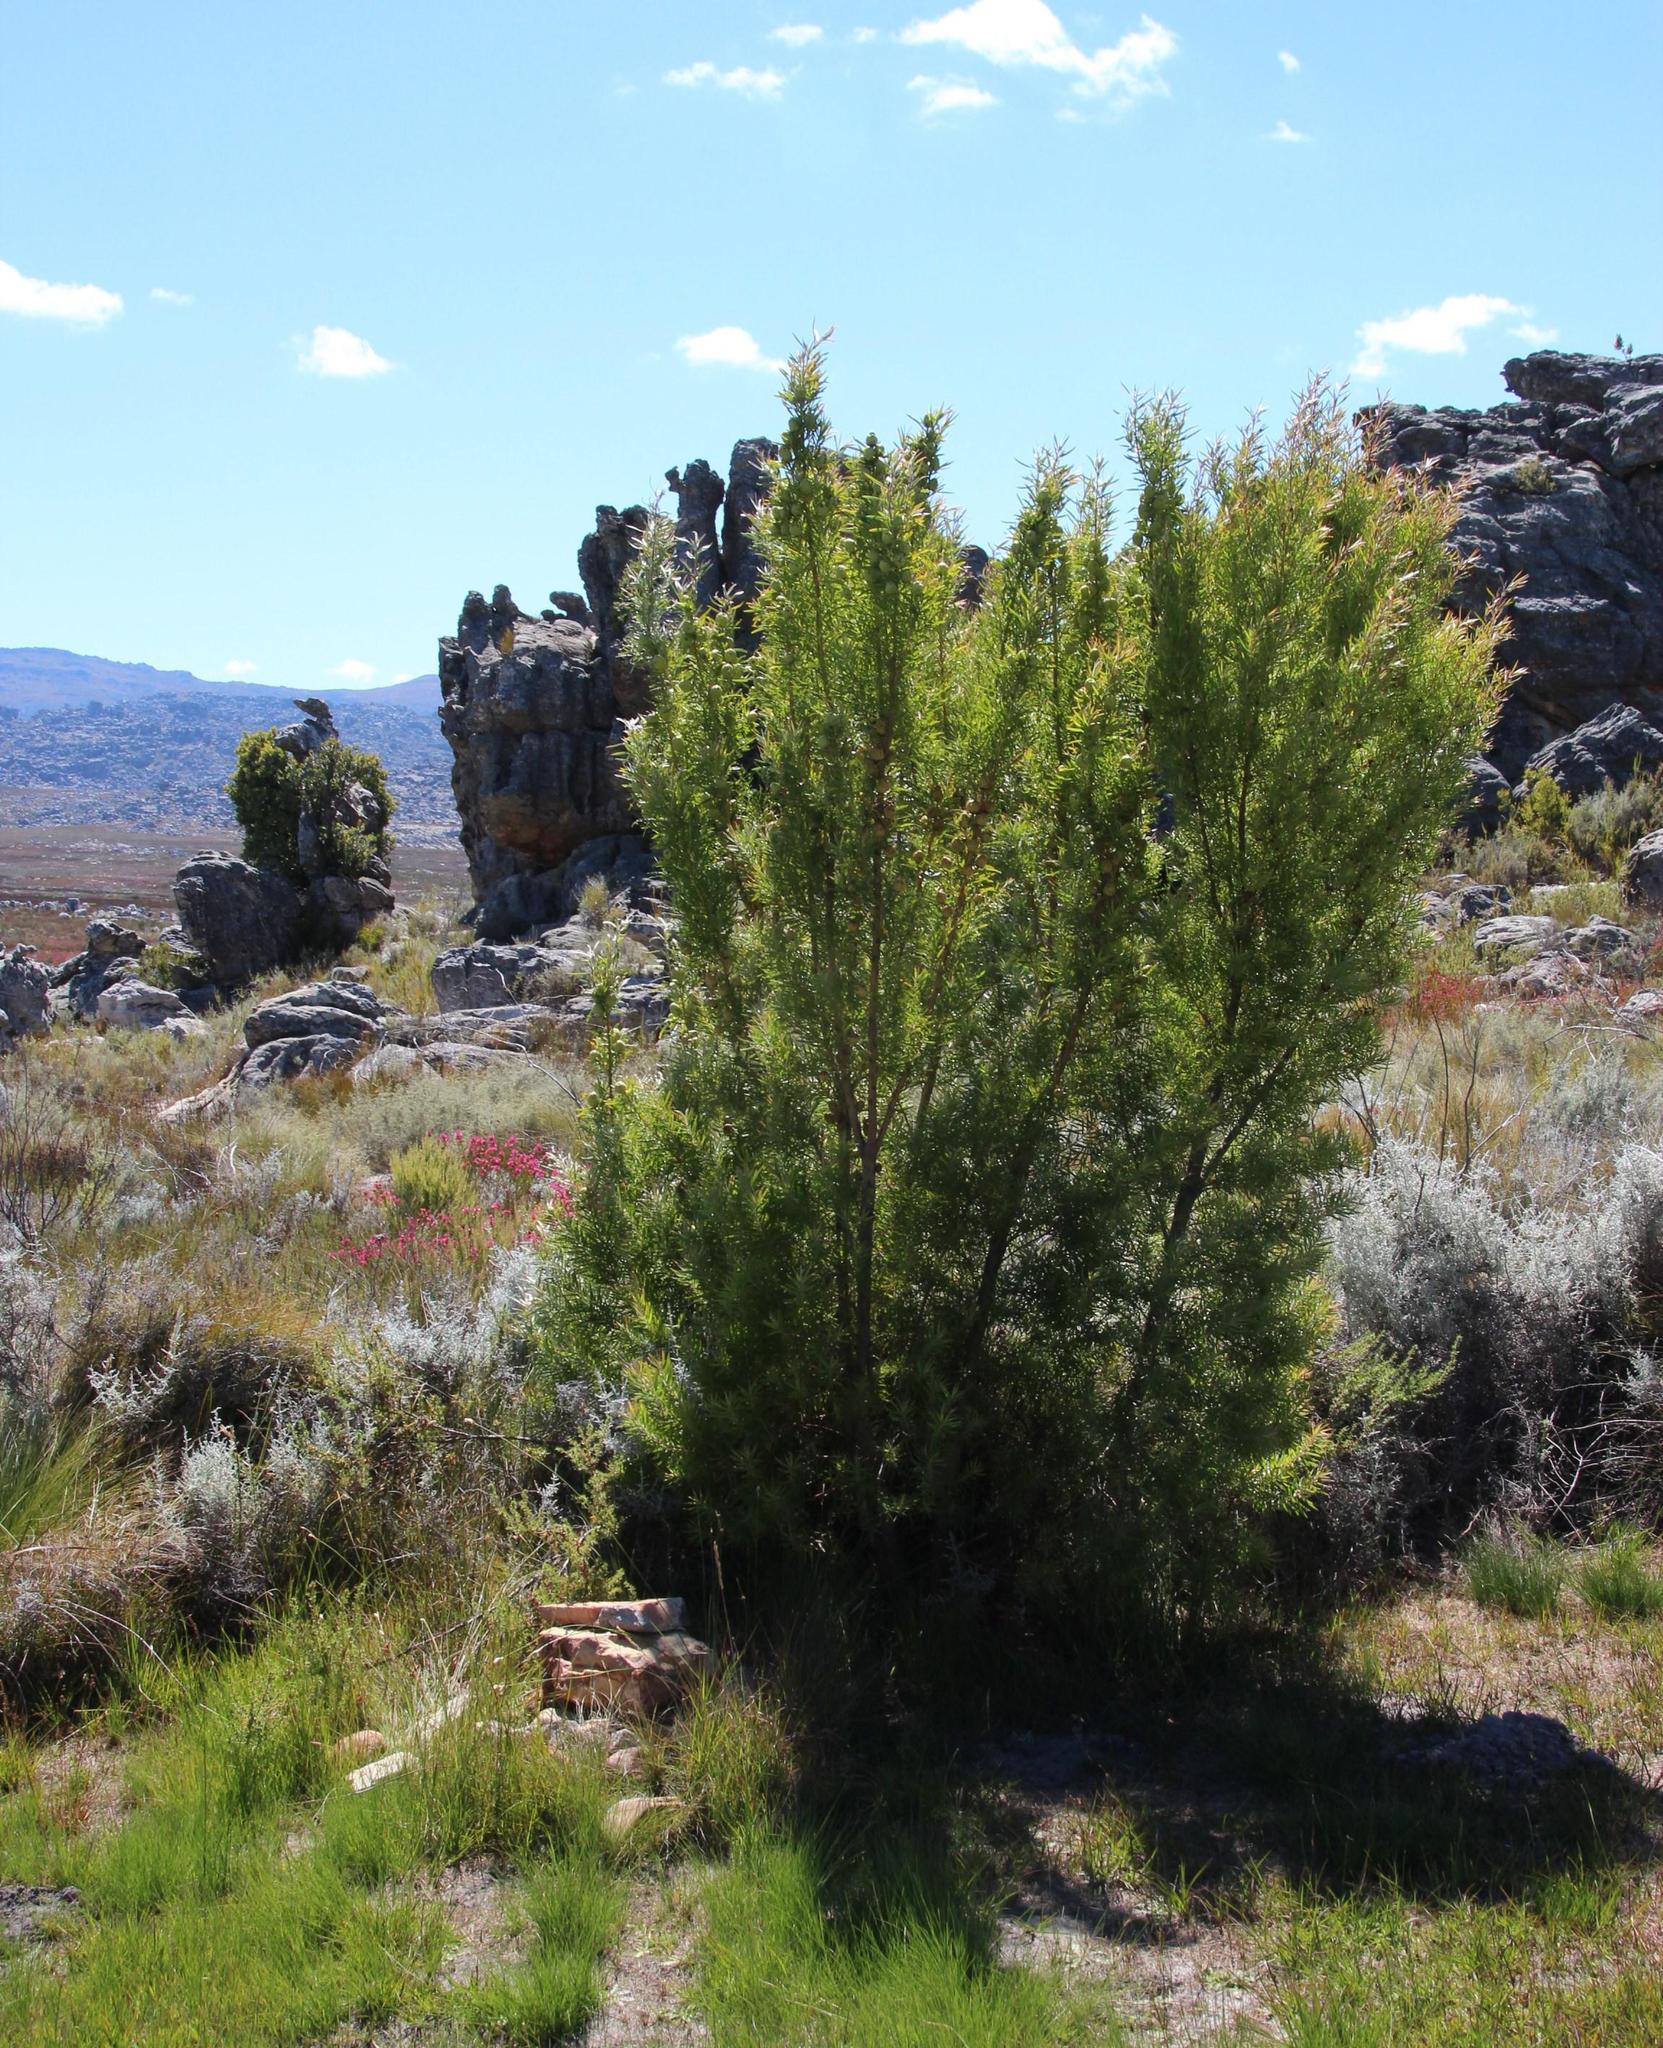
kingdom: Plantae
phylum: Tracheophyta
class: Magnoliopsida
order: Proteales
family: Proteaceae
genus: Leucadendron
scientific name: Leucadendron salicifolium
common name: Common stream conebush
